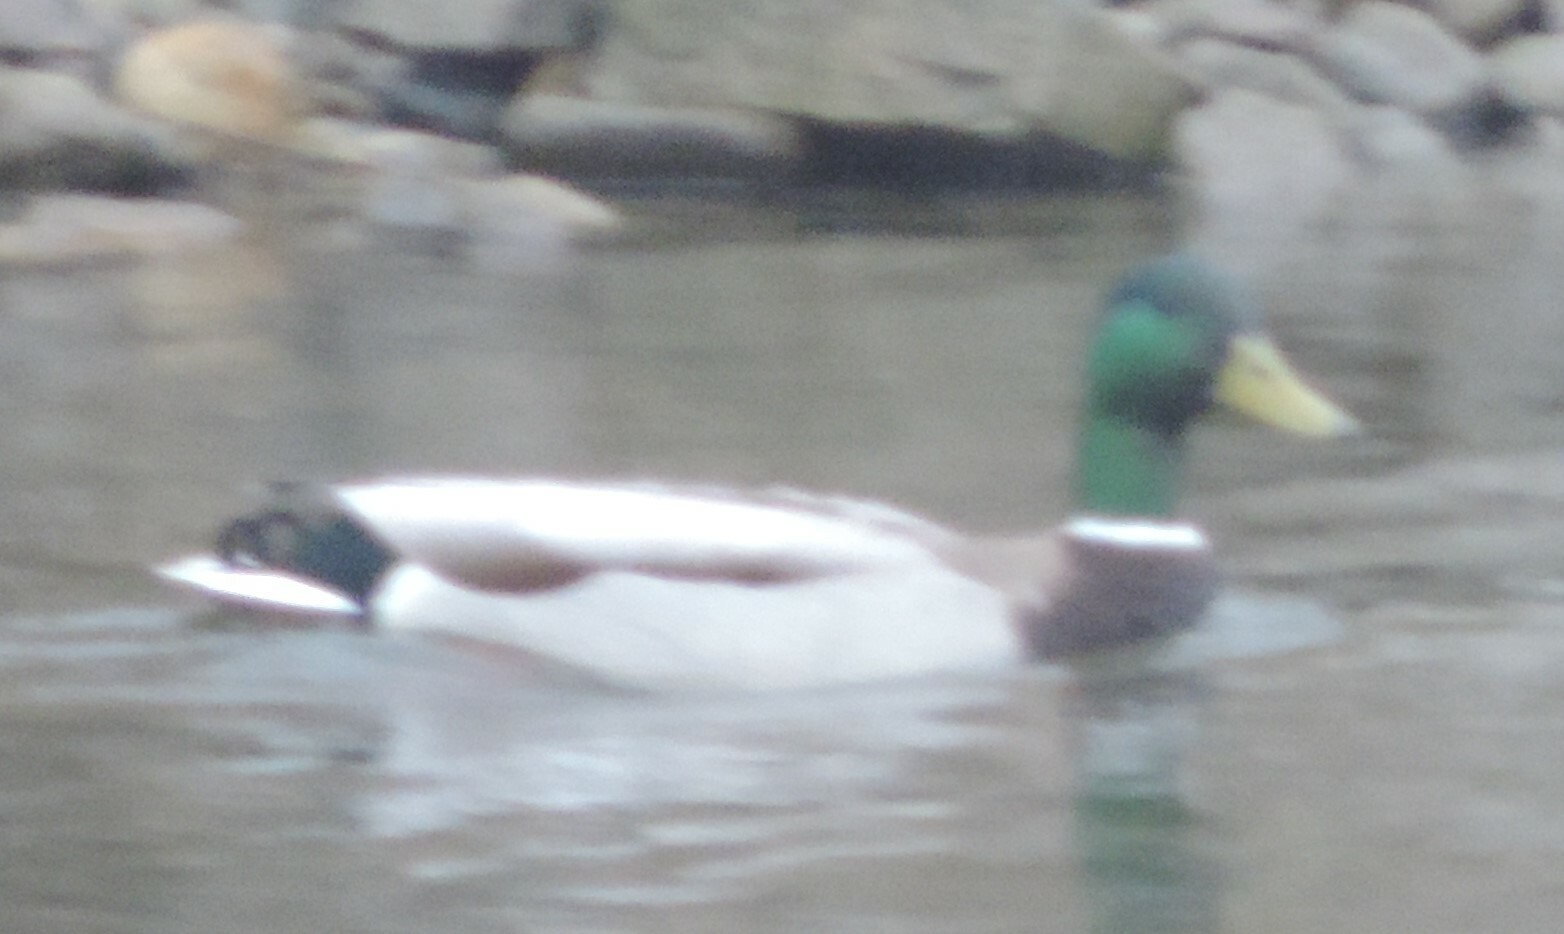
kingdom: Animalia
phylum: Chordata
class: Aves
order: Anseriformes
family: Anatidae
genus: Anas
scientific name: Anas platyrhynchos
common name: Mallard
